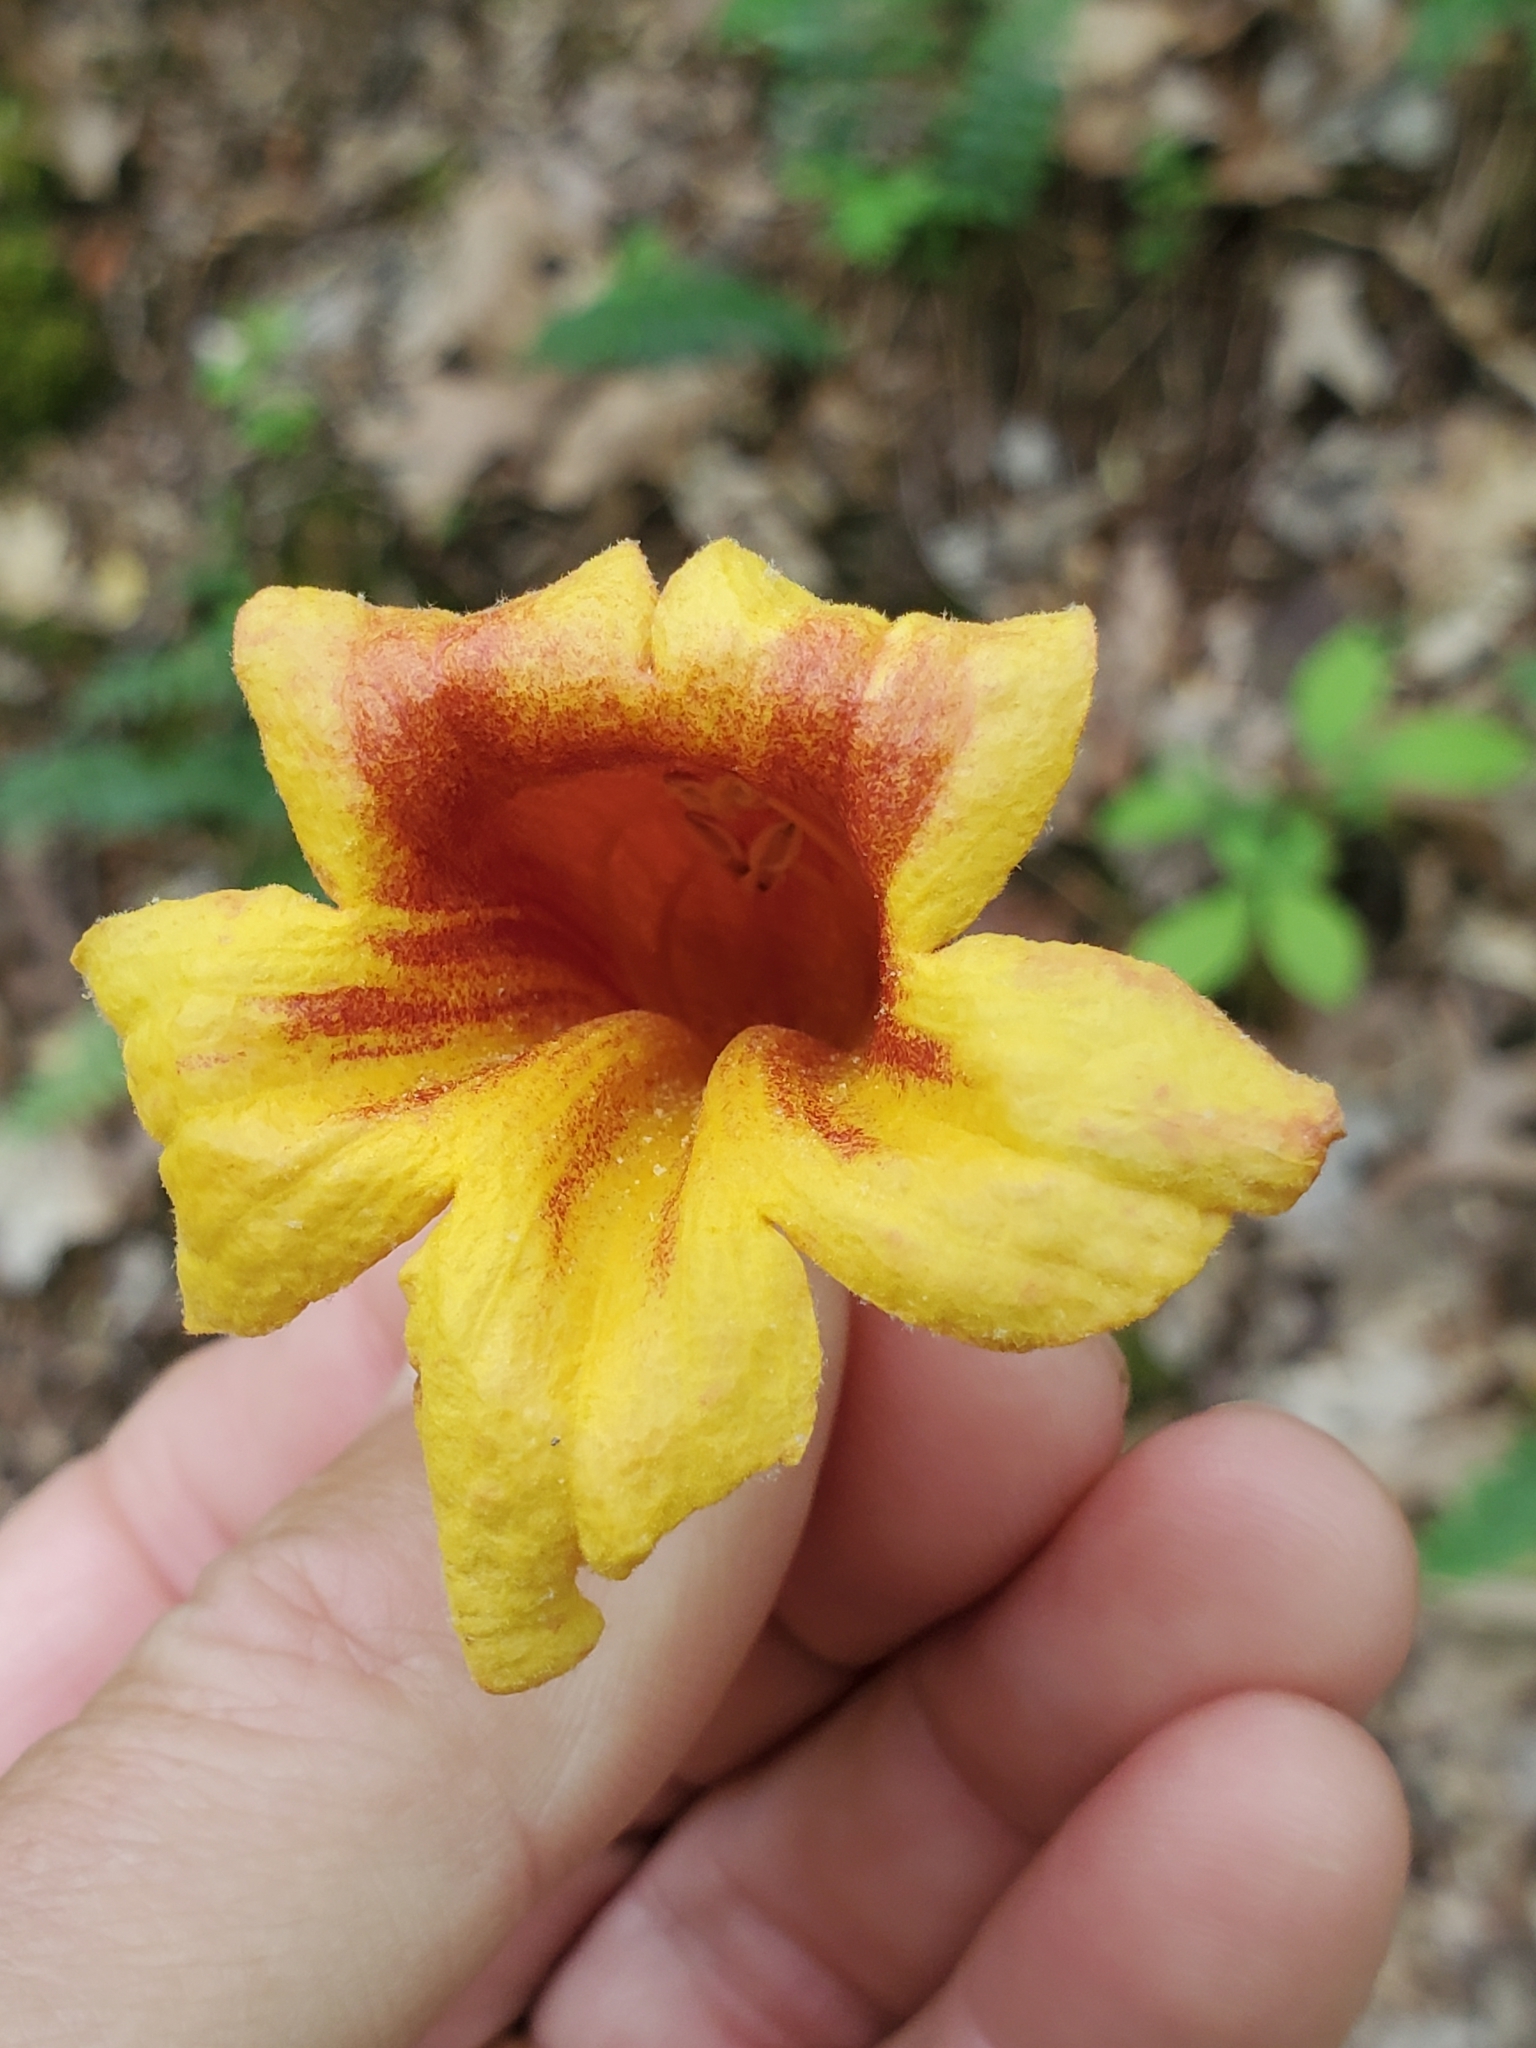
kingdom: Plantae
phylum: Tracheophyta
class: Magnoliopsida
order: Lamiales
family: Bignoniaceae
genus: Bignonia
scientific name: Bignonia capreolata
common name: Crossvine
